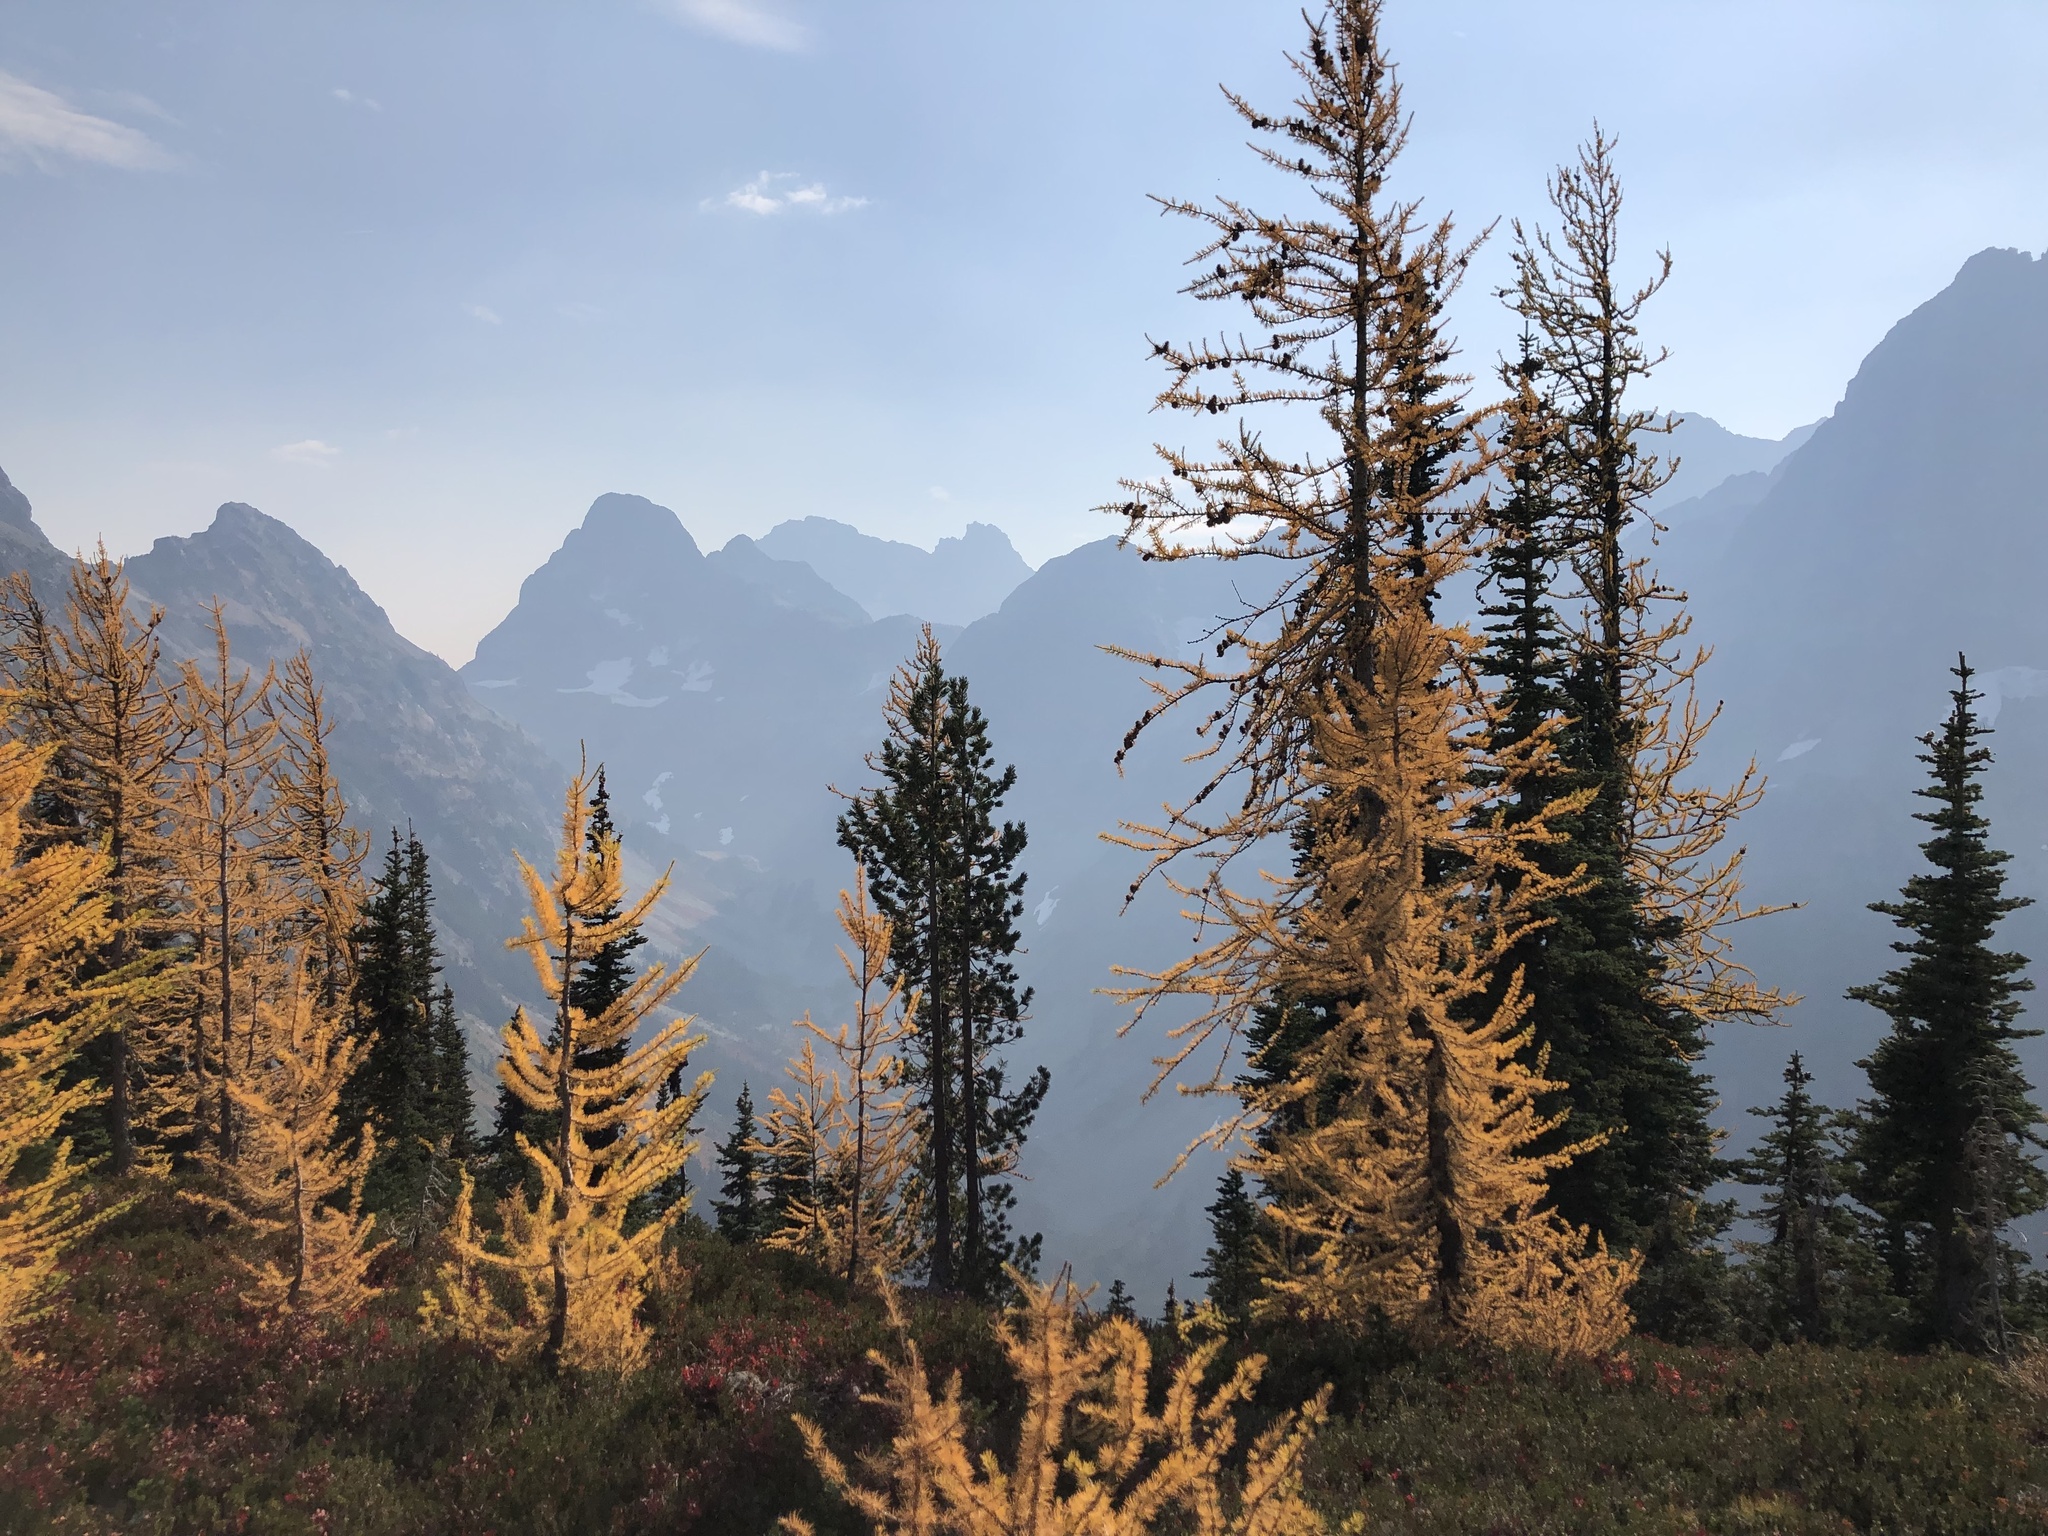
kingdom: Plantae
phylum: Tracheophyta
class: Pinopsida
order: Pinales
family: Pinaceae
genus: Larix
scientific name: Larix lyallii
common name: Alpine larch
